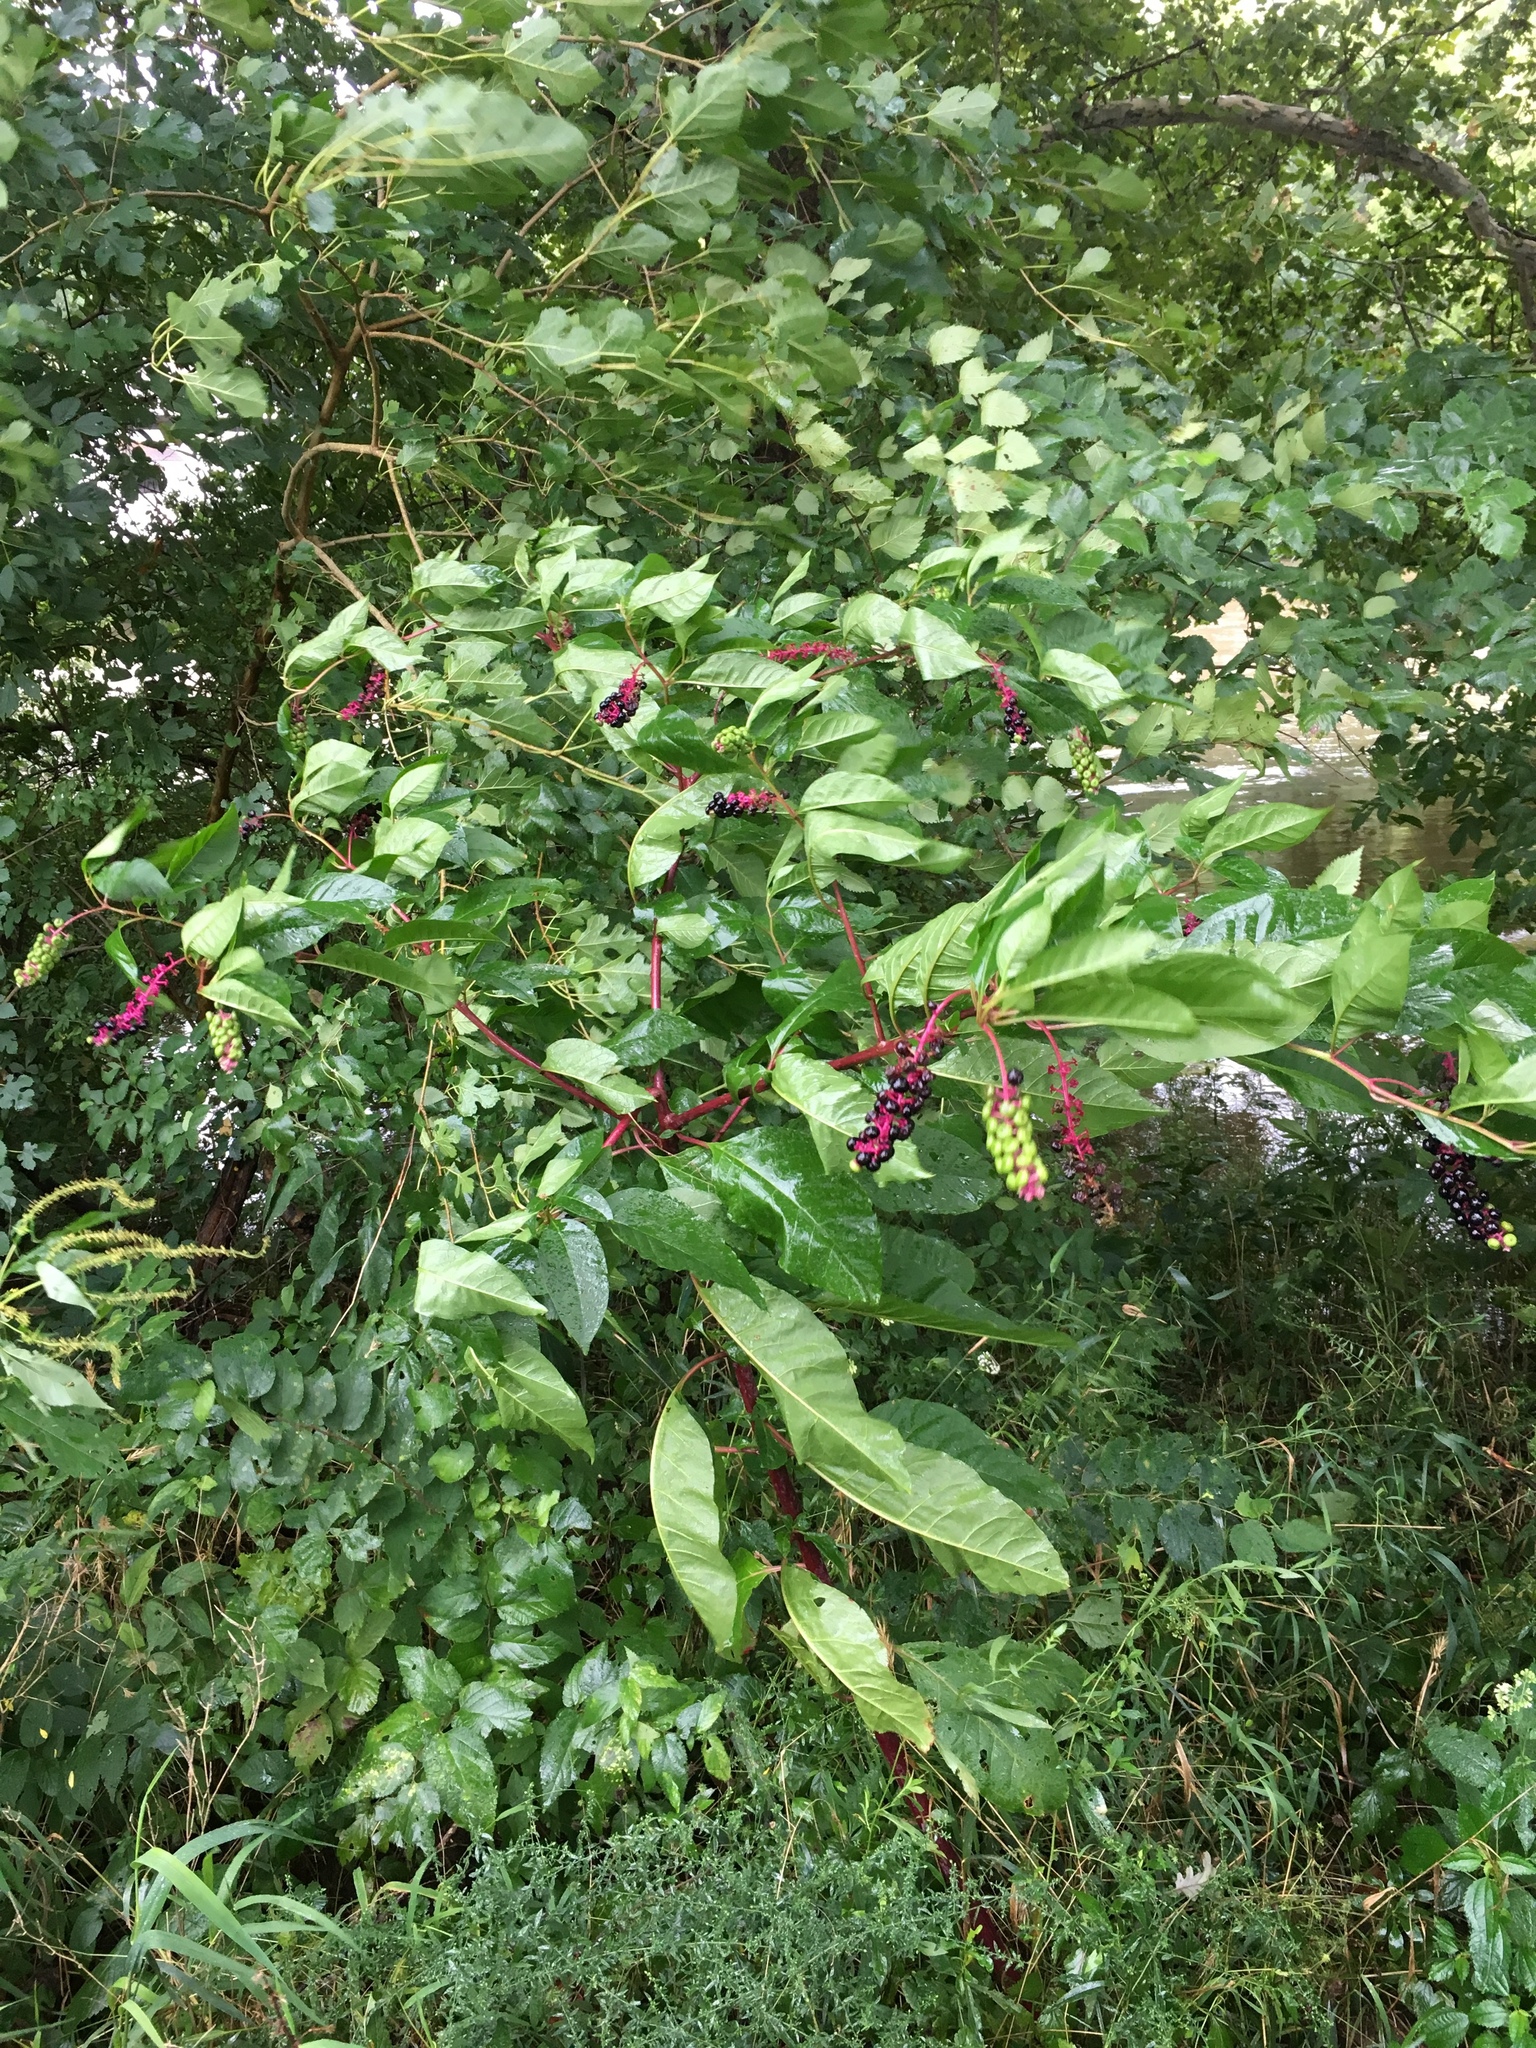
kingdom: Plantae
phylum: Tracheophyta
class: Magnoliopsida
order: Caryophyllales
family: Phytolaccaceae
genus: Phytolacca
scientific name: Phytolacca americana
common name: American pokeweed
